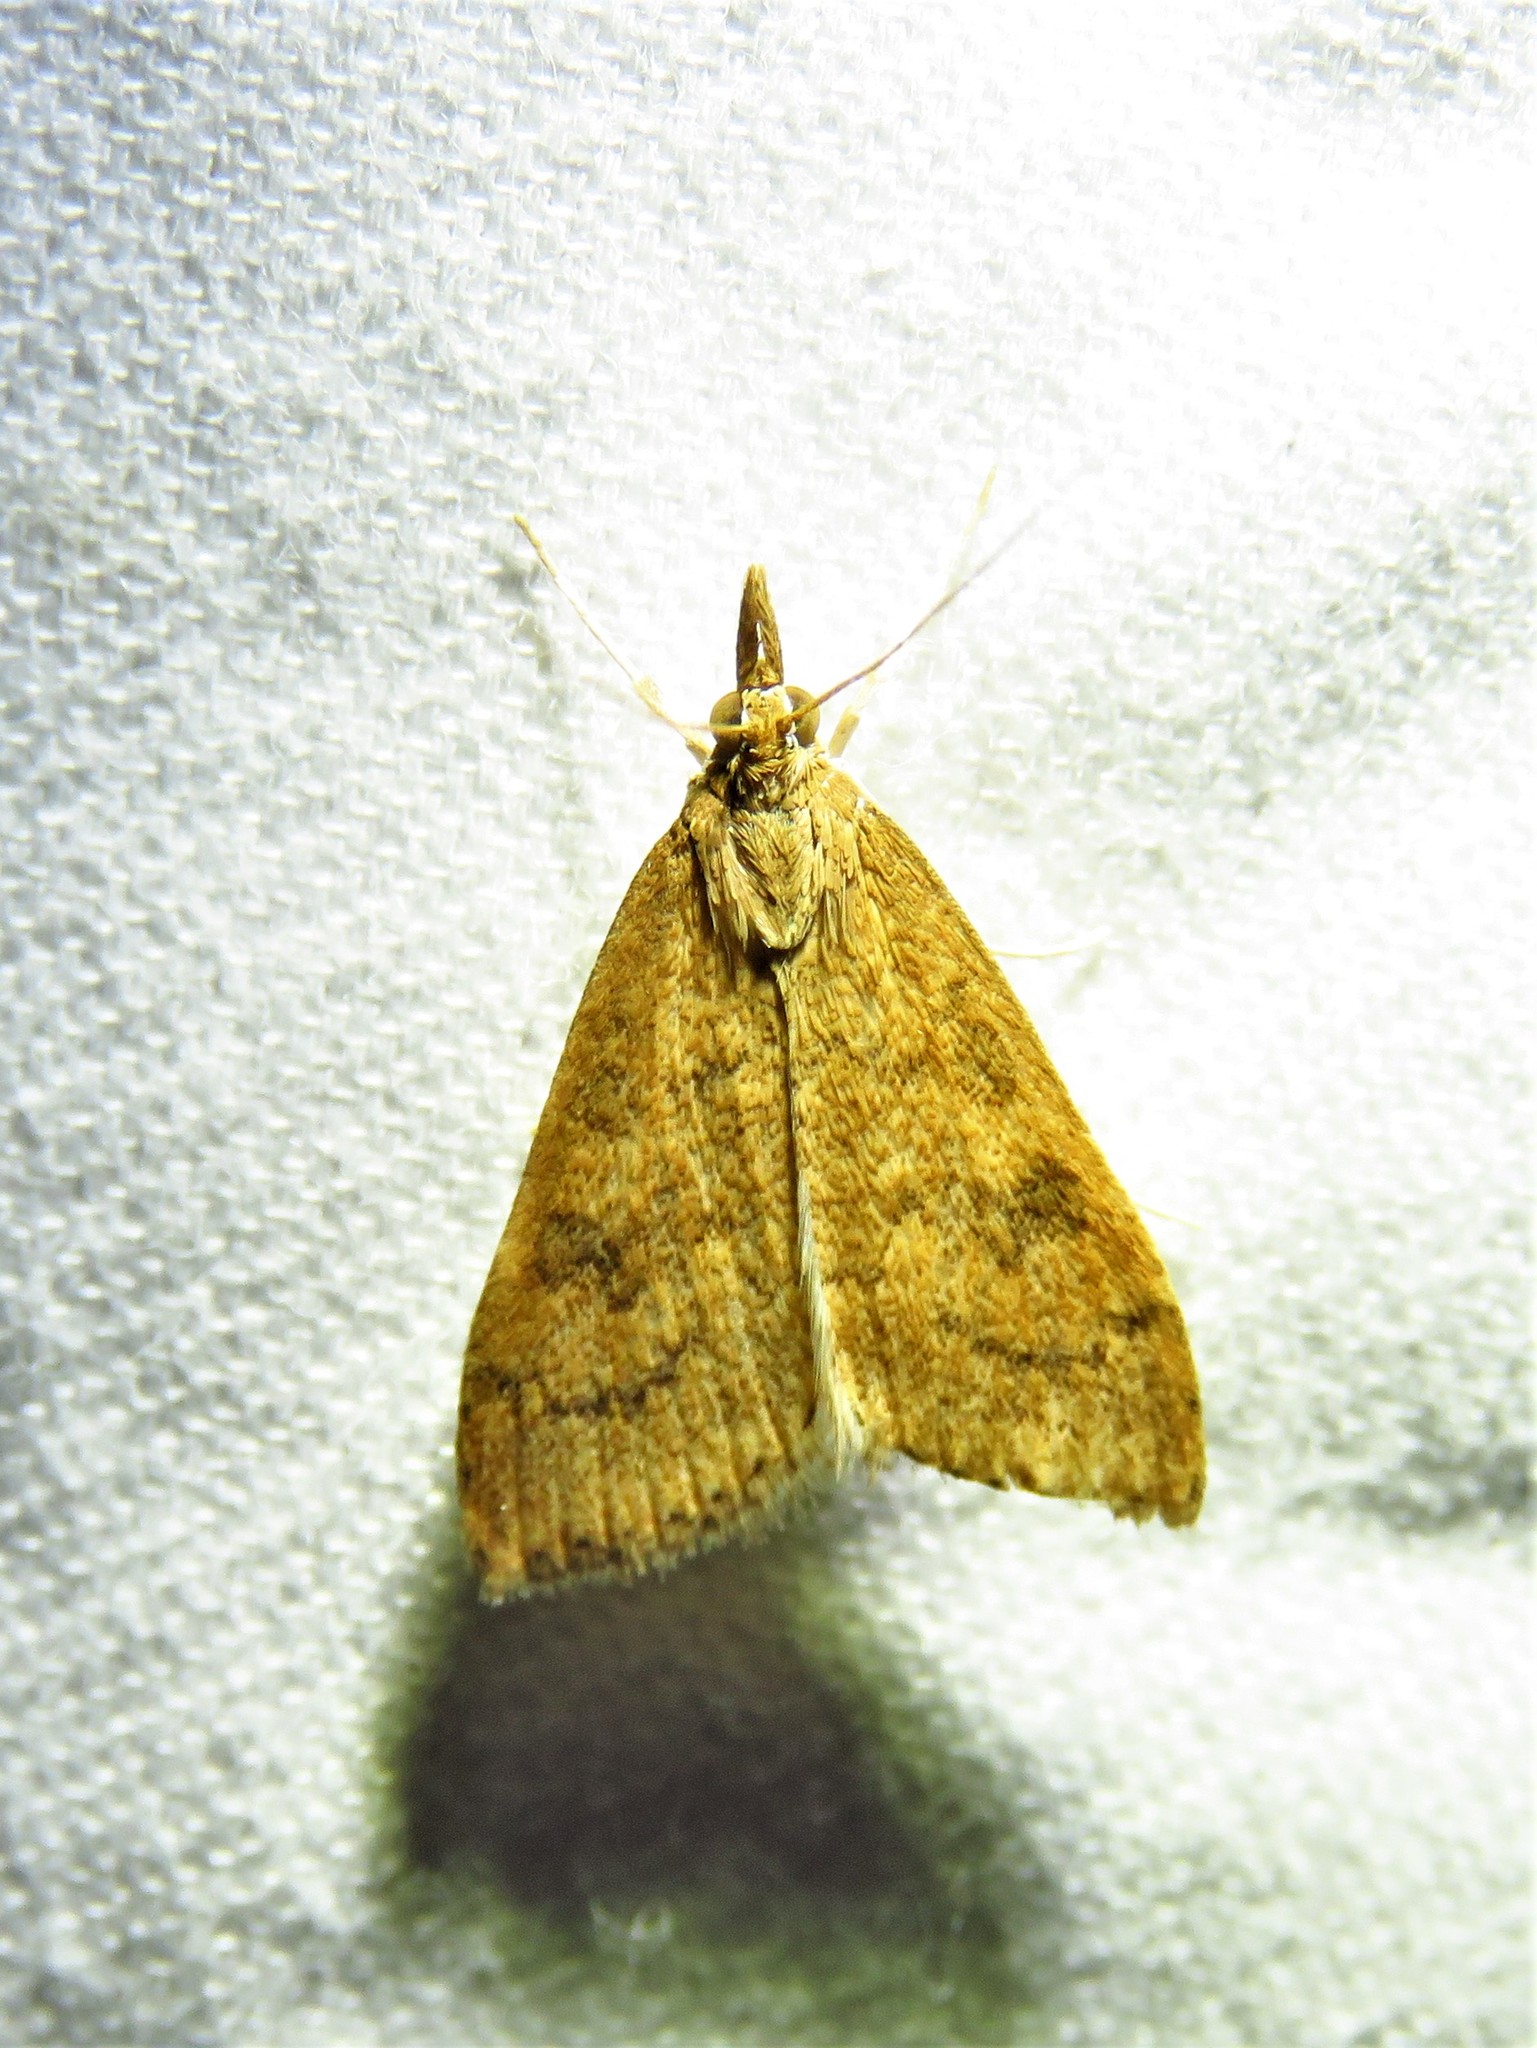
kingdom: Animalia
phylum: Arthropoda
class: Insecta
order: Lepidoptera
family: Crambidae
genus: Udea
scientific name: Udea rubigalis
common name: Celery leaftier moth
